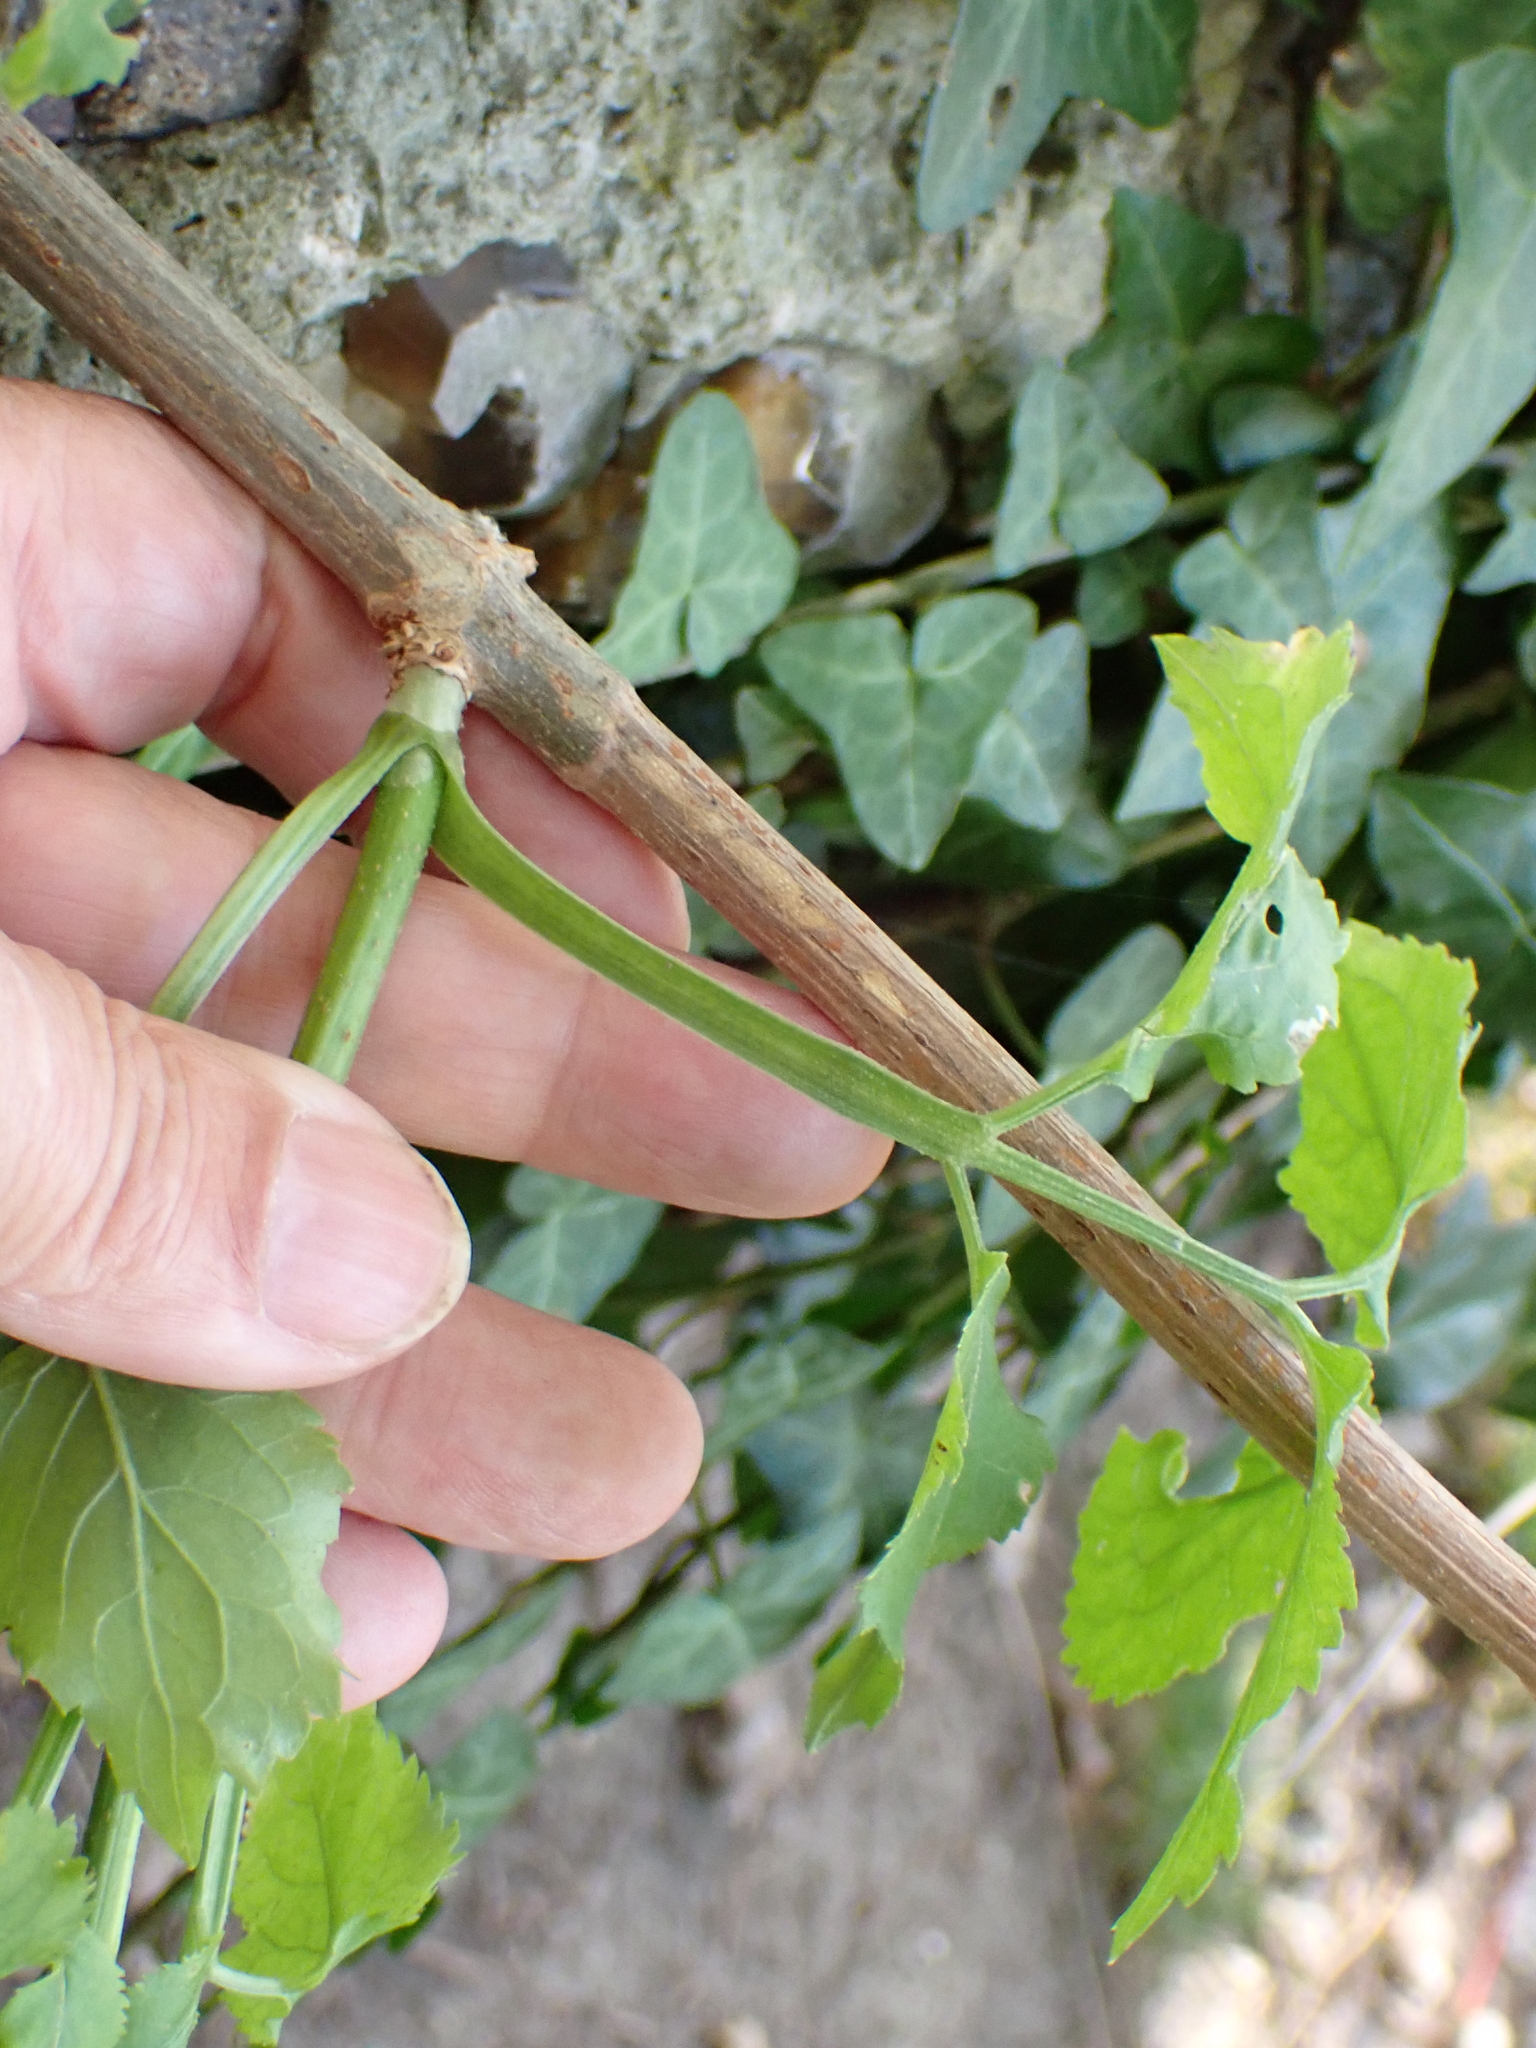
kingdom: Plantae
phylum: Tracheophyta
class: Magnoliopsida
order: Dipsacales
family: Viburnaceae
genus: Sambucus
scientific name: Sambucus nigra
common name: Elder
